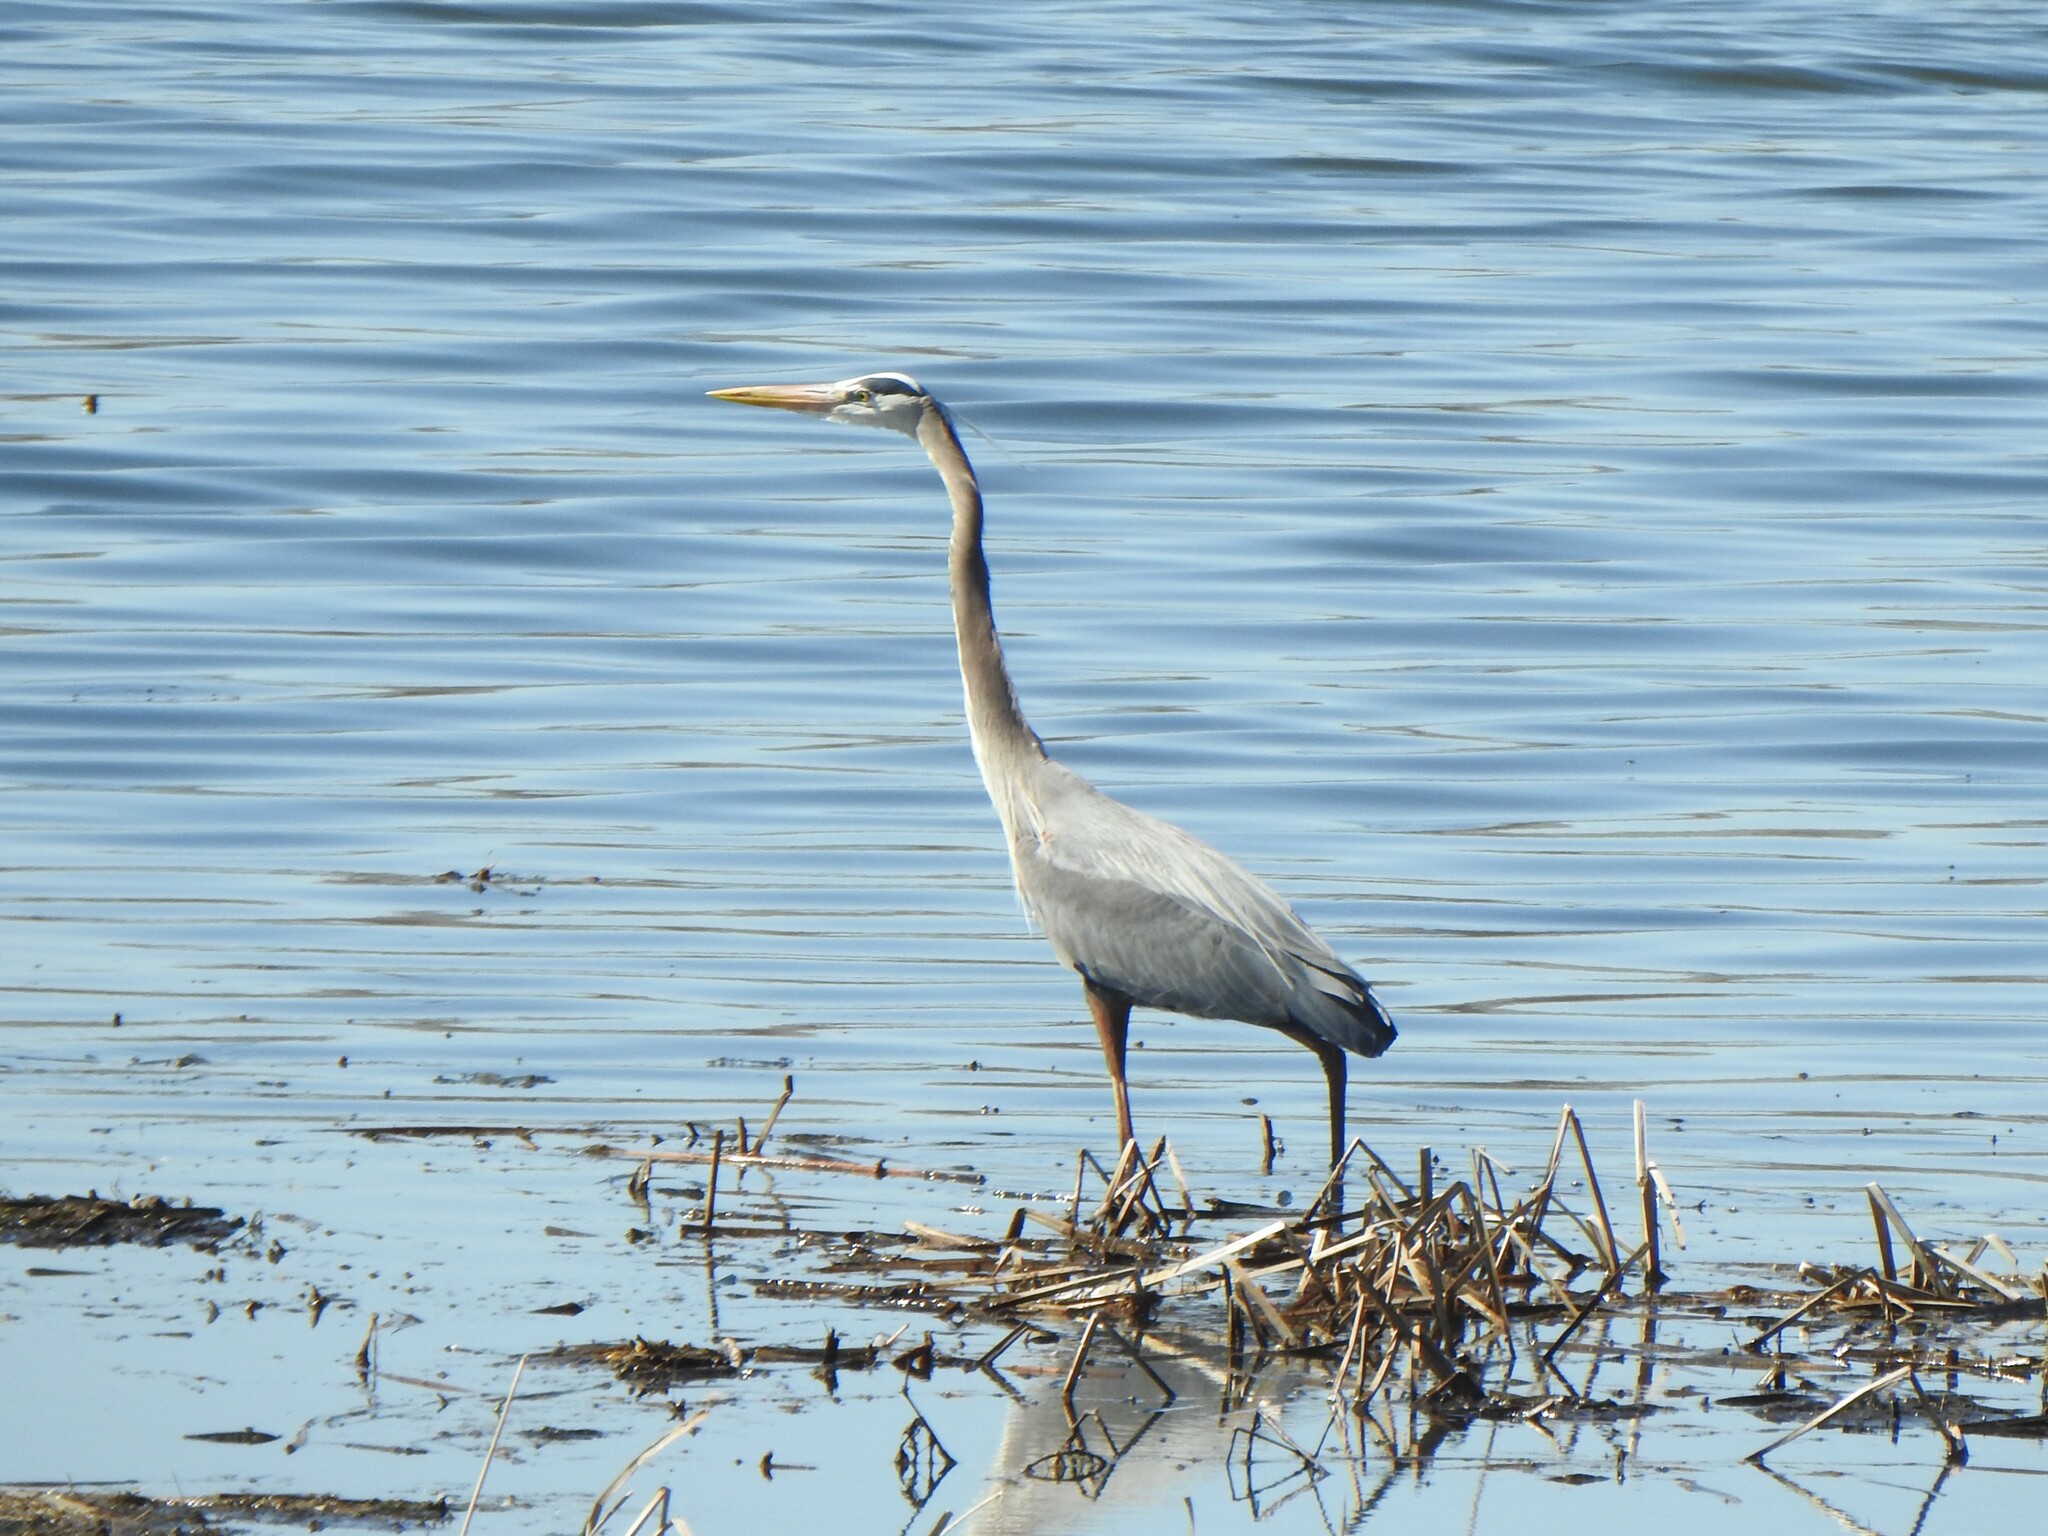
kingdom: Animalia
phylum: Chordata
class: Aves
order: Pelecaniformes
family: Ardeidae
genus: Ardea
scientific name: Ardea herodias
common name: Great blue heron
